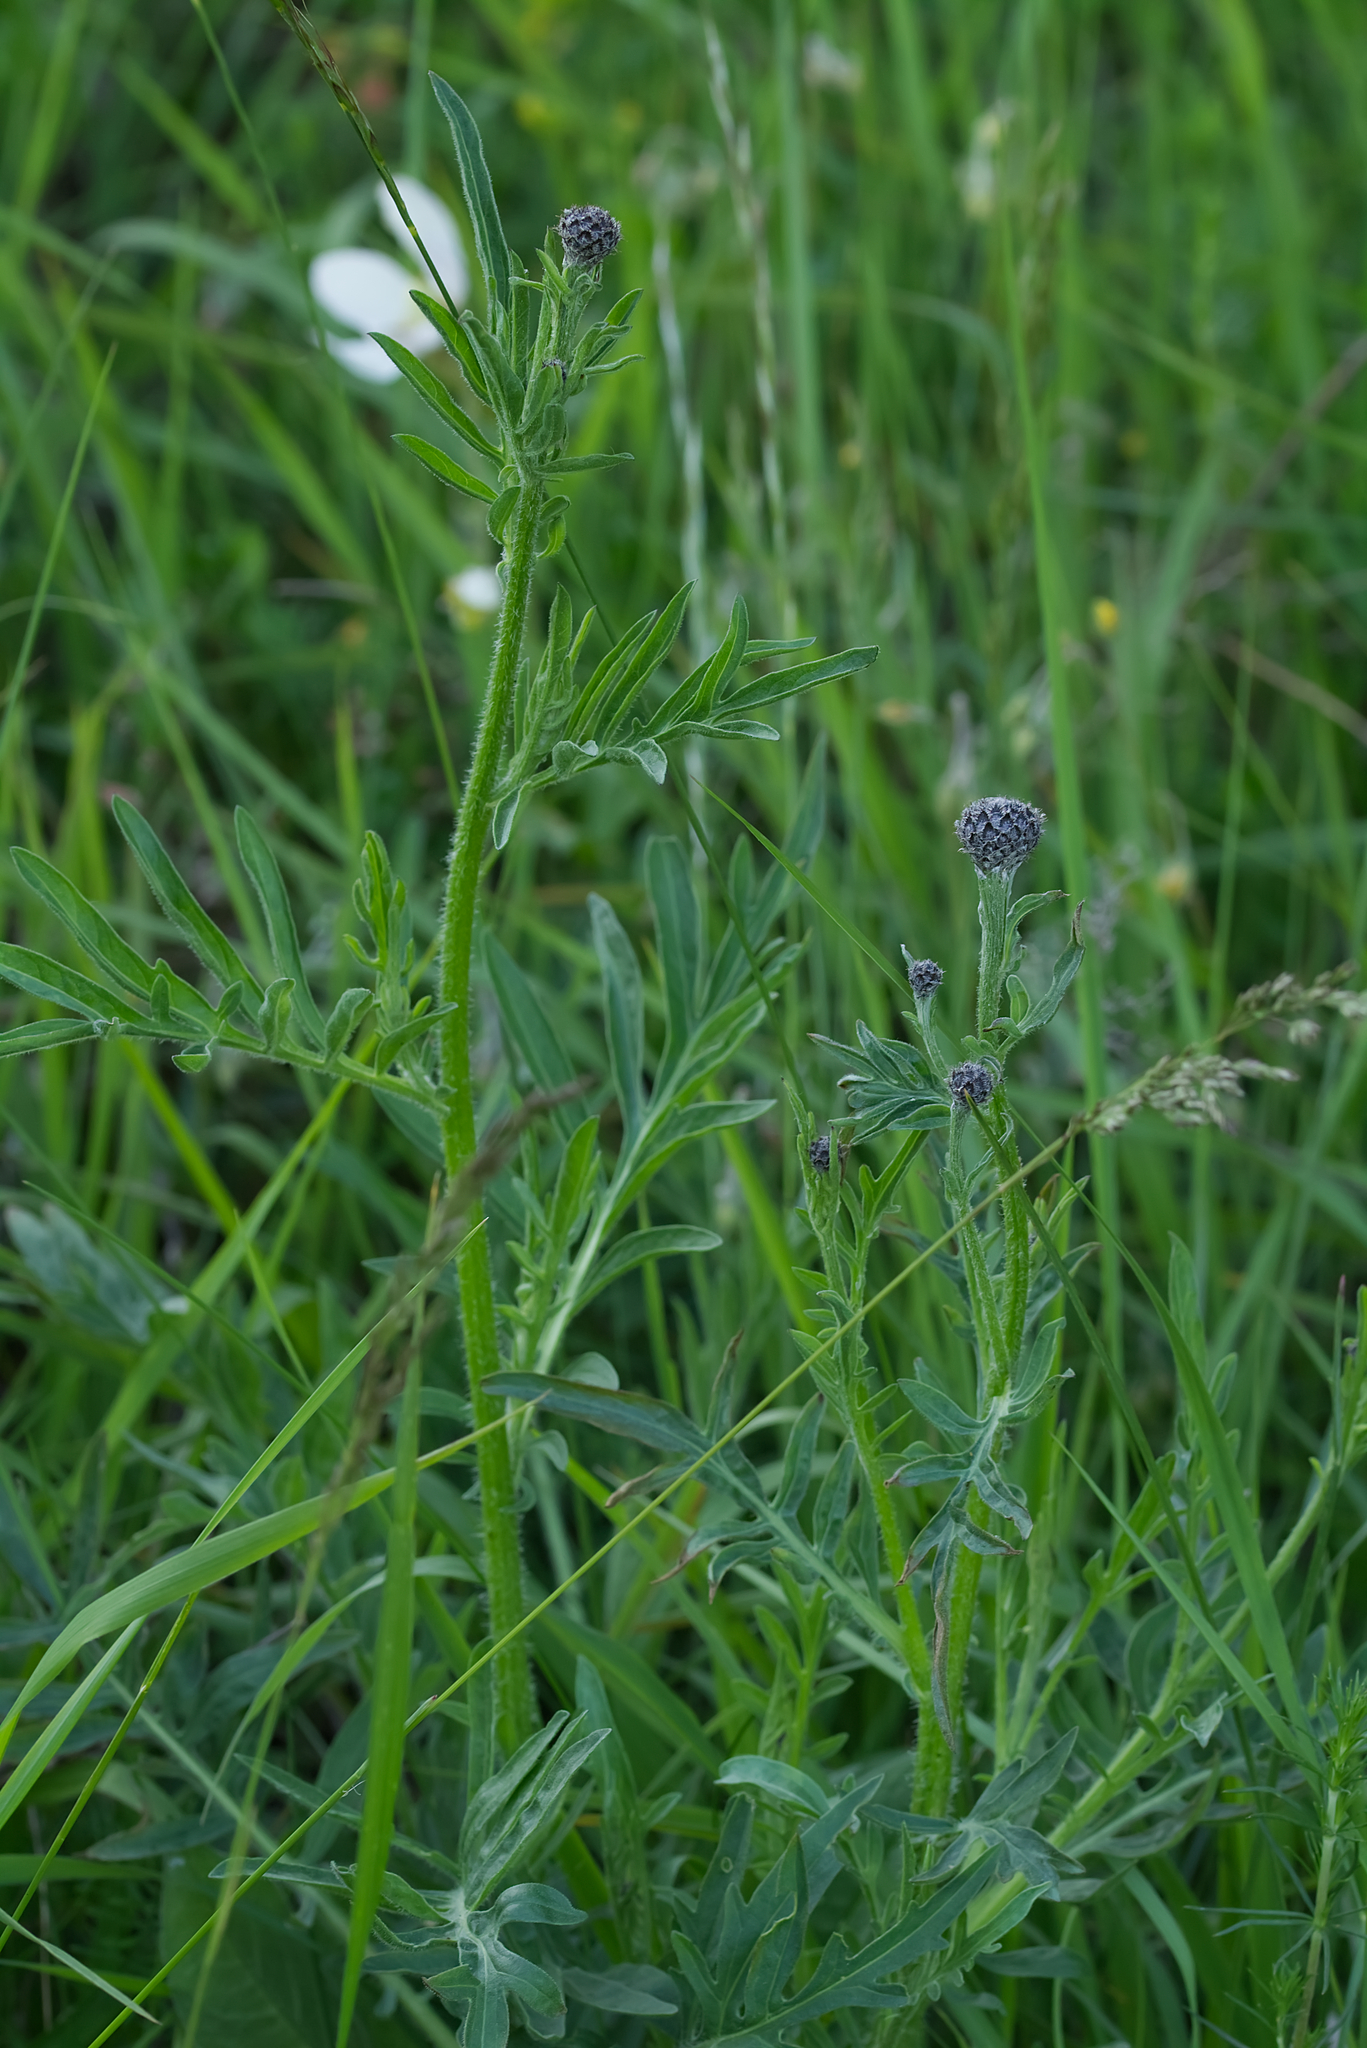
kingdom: Plantae
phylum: Tracheophyta
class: Magnoliopsida
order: Asterales
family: Asteraceae
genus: Centaurea
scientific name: Centaurea scabiosa
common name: Greater knapweed
